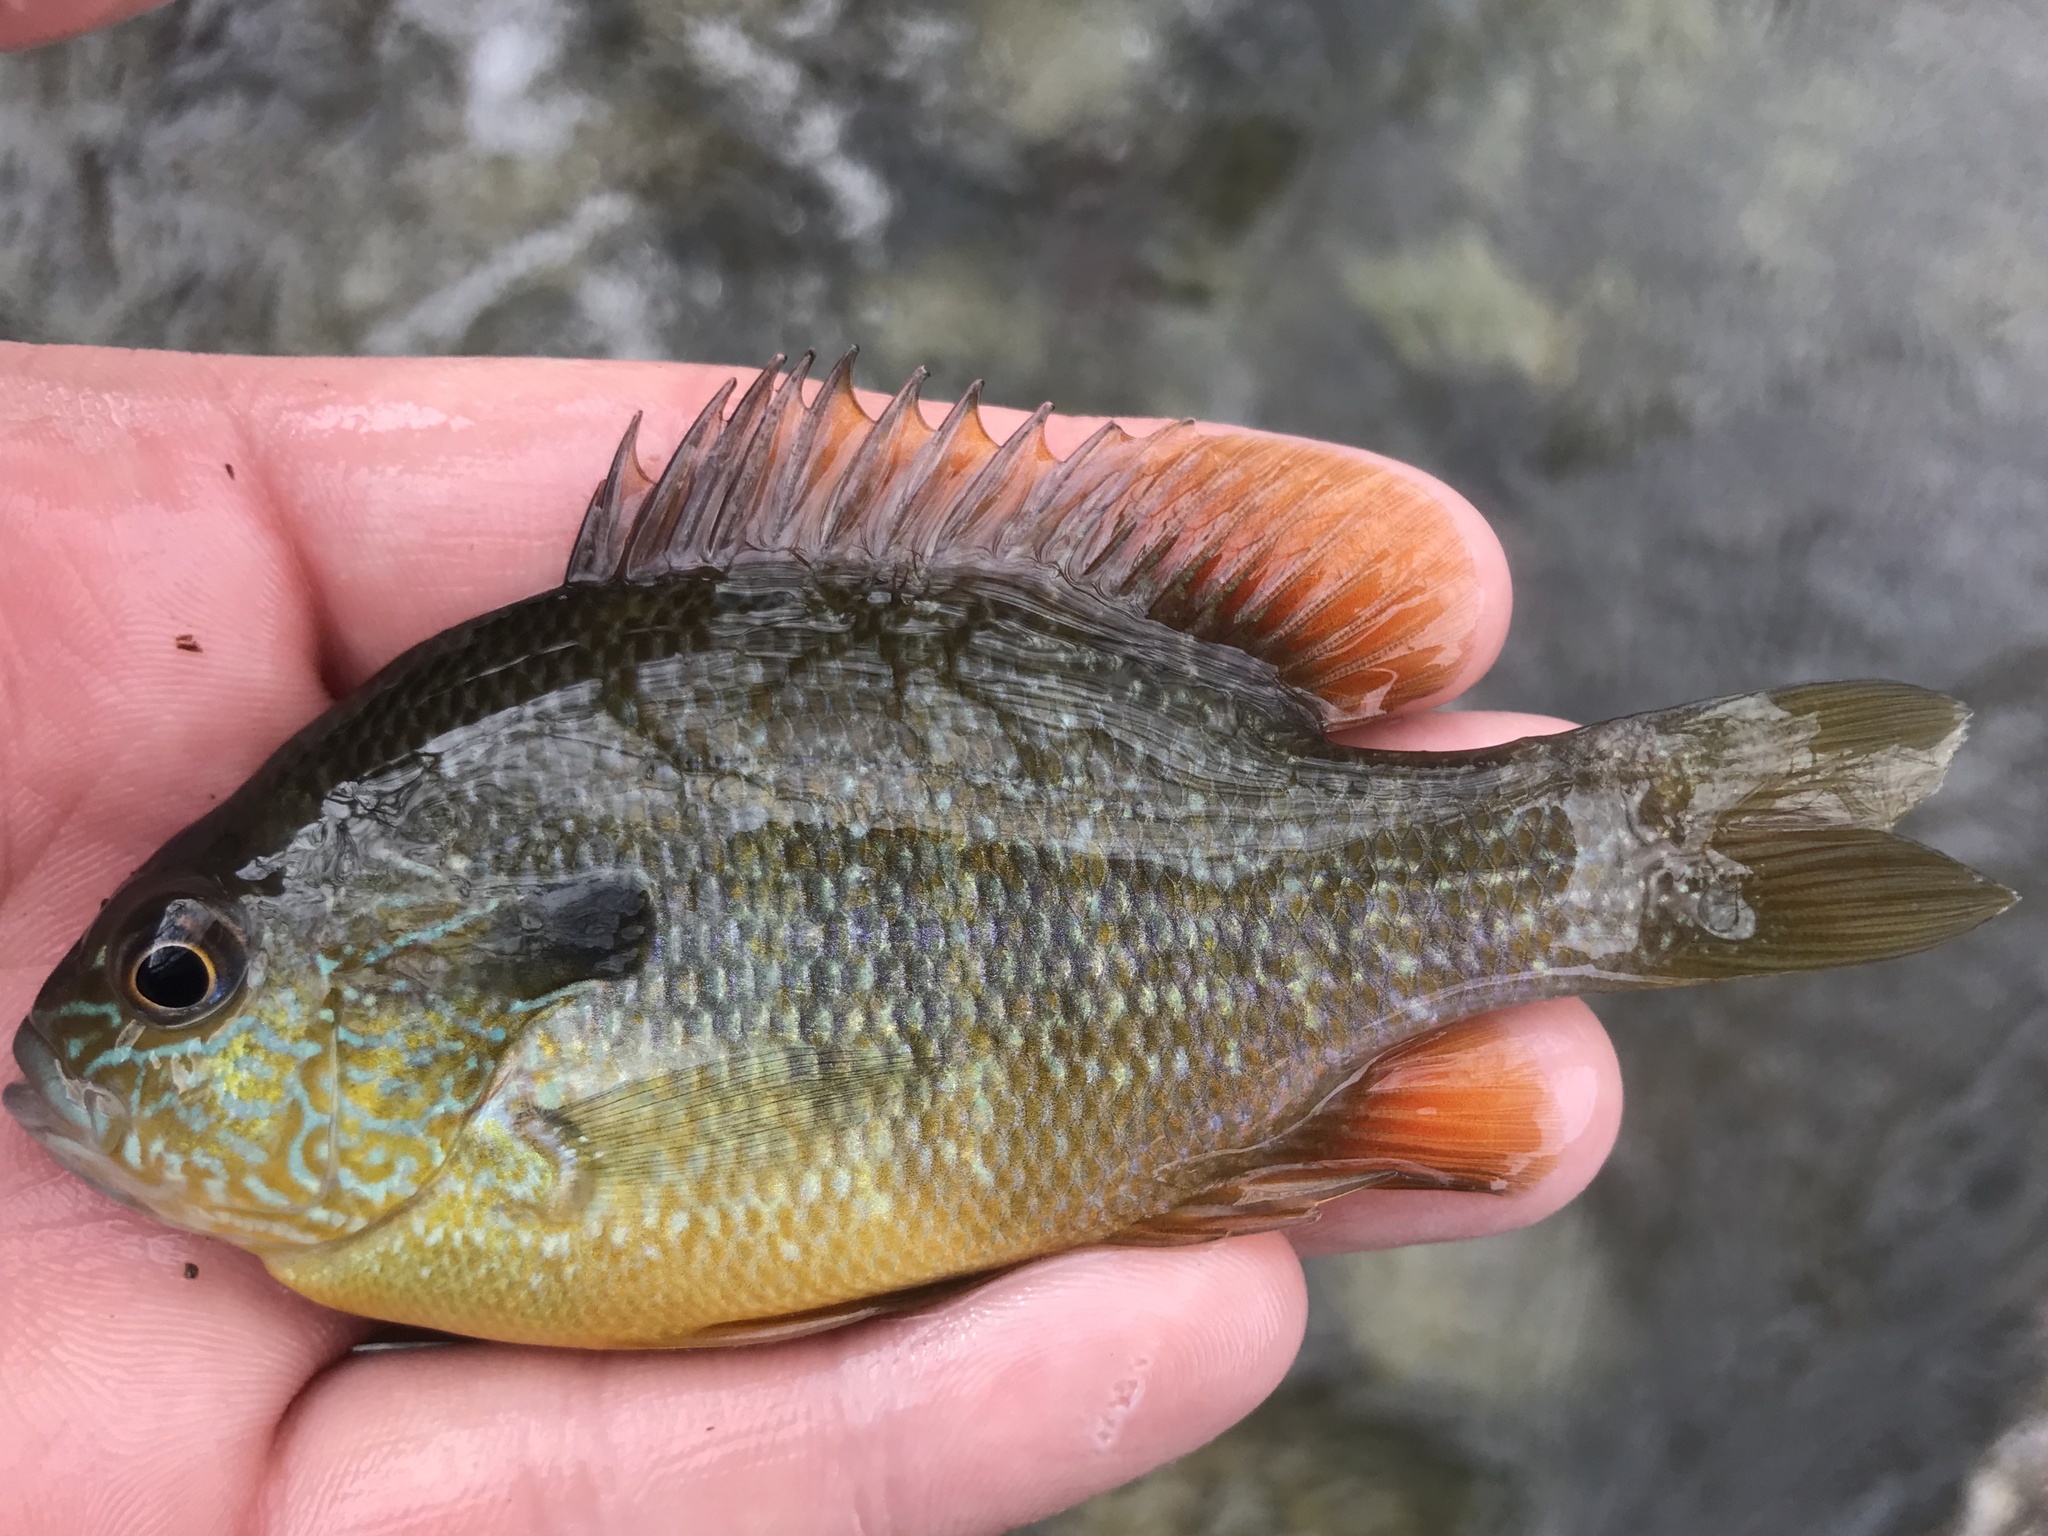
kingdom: Animalia
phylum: Chordata
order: Perciformes
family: Centrarchidae
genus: Lepomis
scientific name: Lepomis megalotis
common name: Longear sunfish
